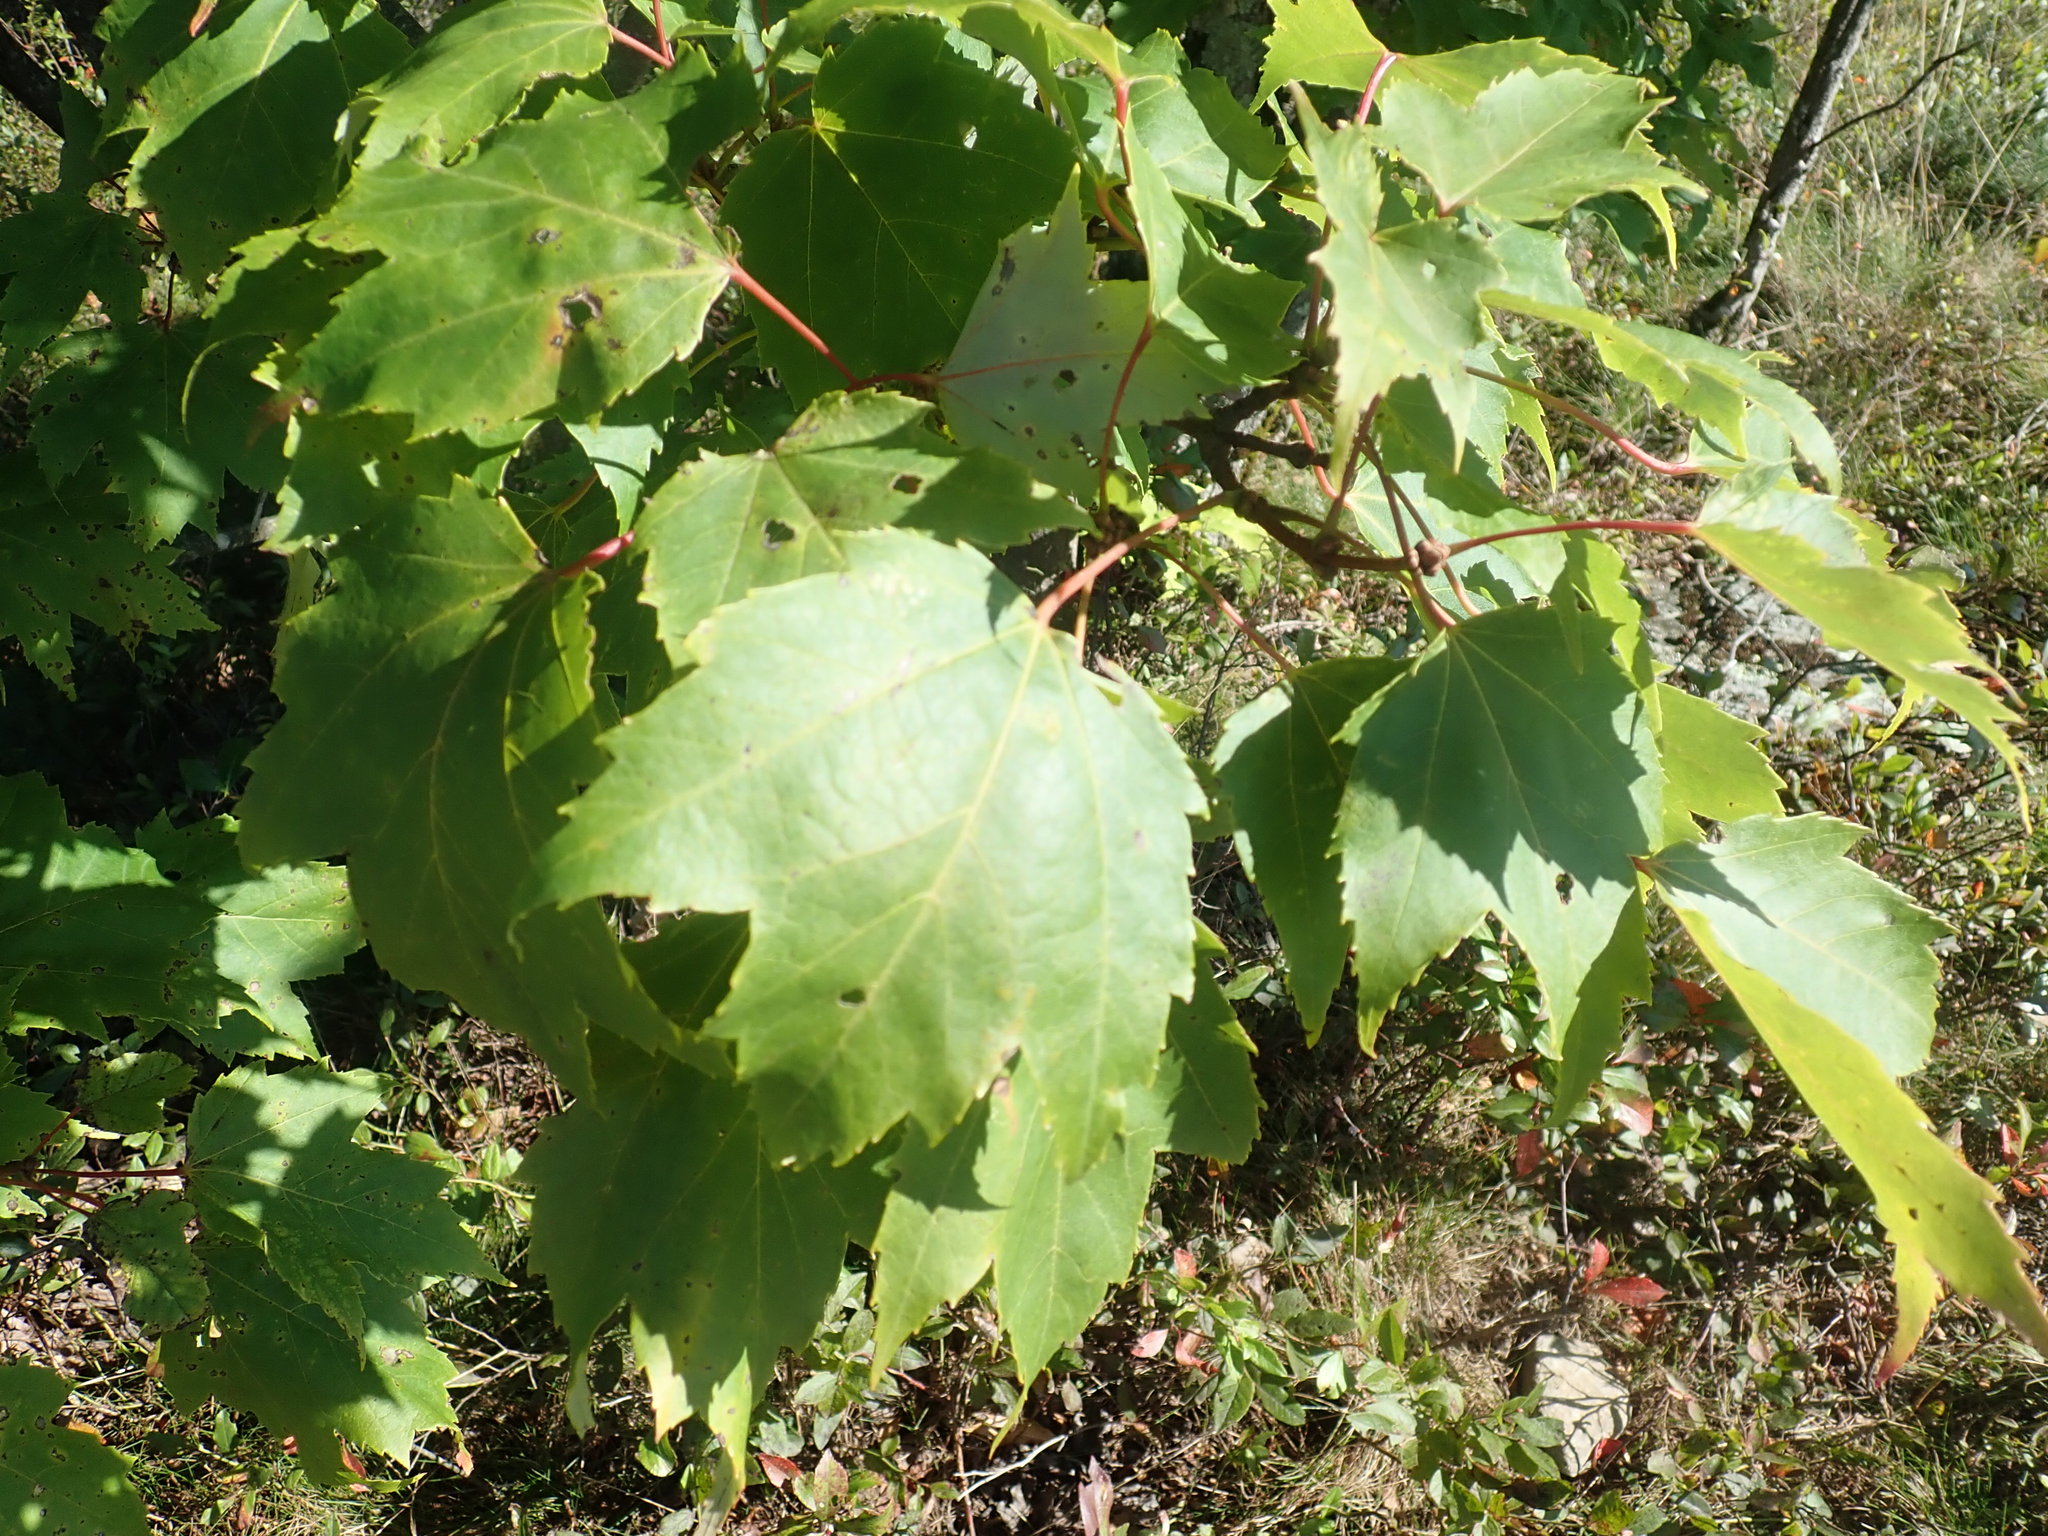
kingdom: Plantae
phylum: Tracheophyta
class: Magnoliopsida
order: Sapindales
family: Sapindaceae
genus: Acer
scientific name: Acer rubrum
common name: Red maple
